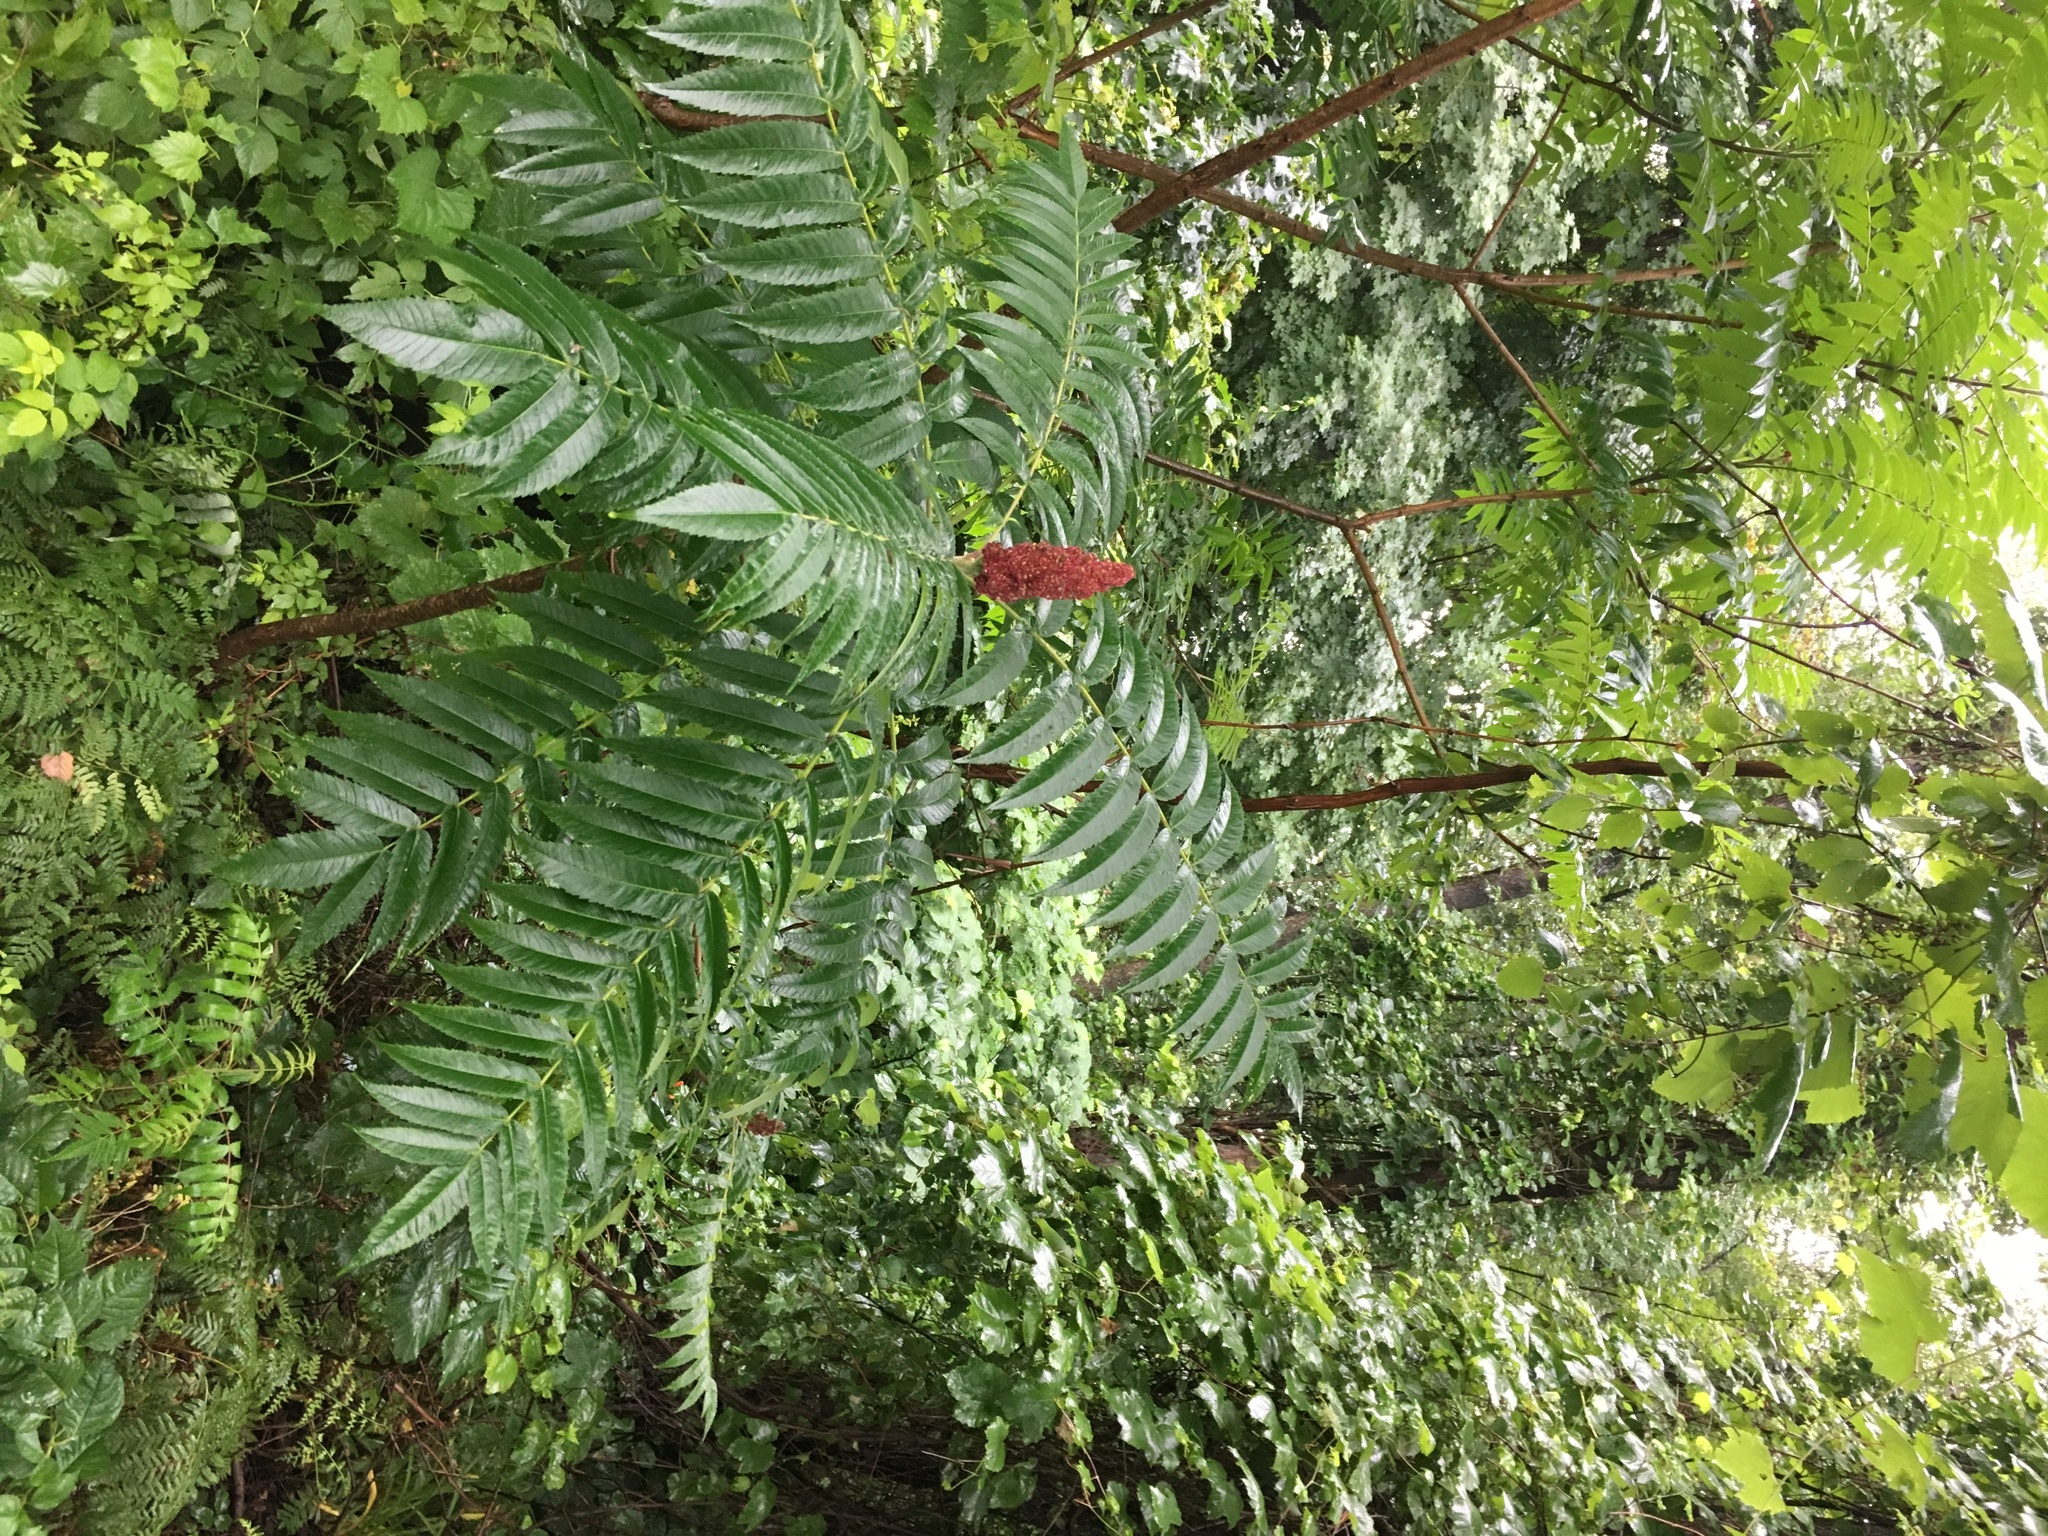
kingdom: Plantae
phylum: Tracheophyta
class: Magnoliopsida
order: Sapindales
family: Anacardiaceae
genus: Rhus
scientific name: Rhus typhina
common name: Staghorn sumac
